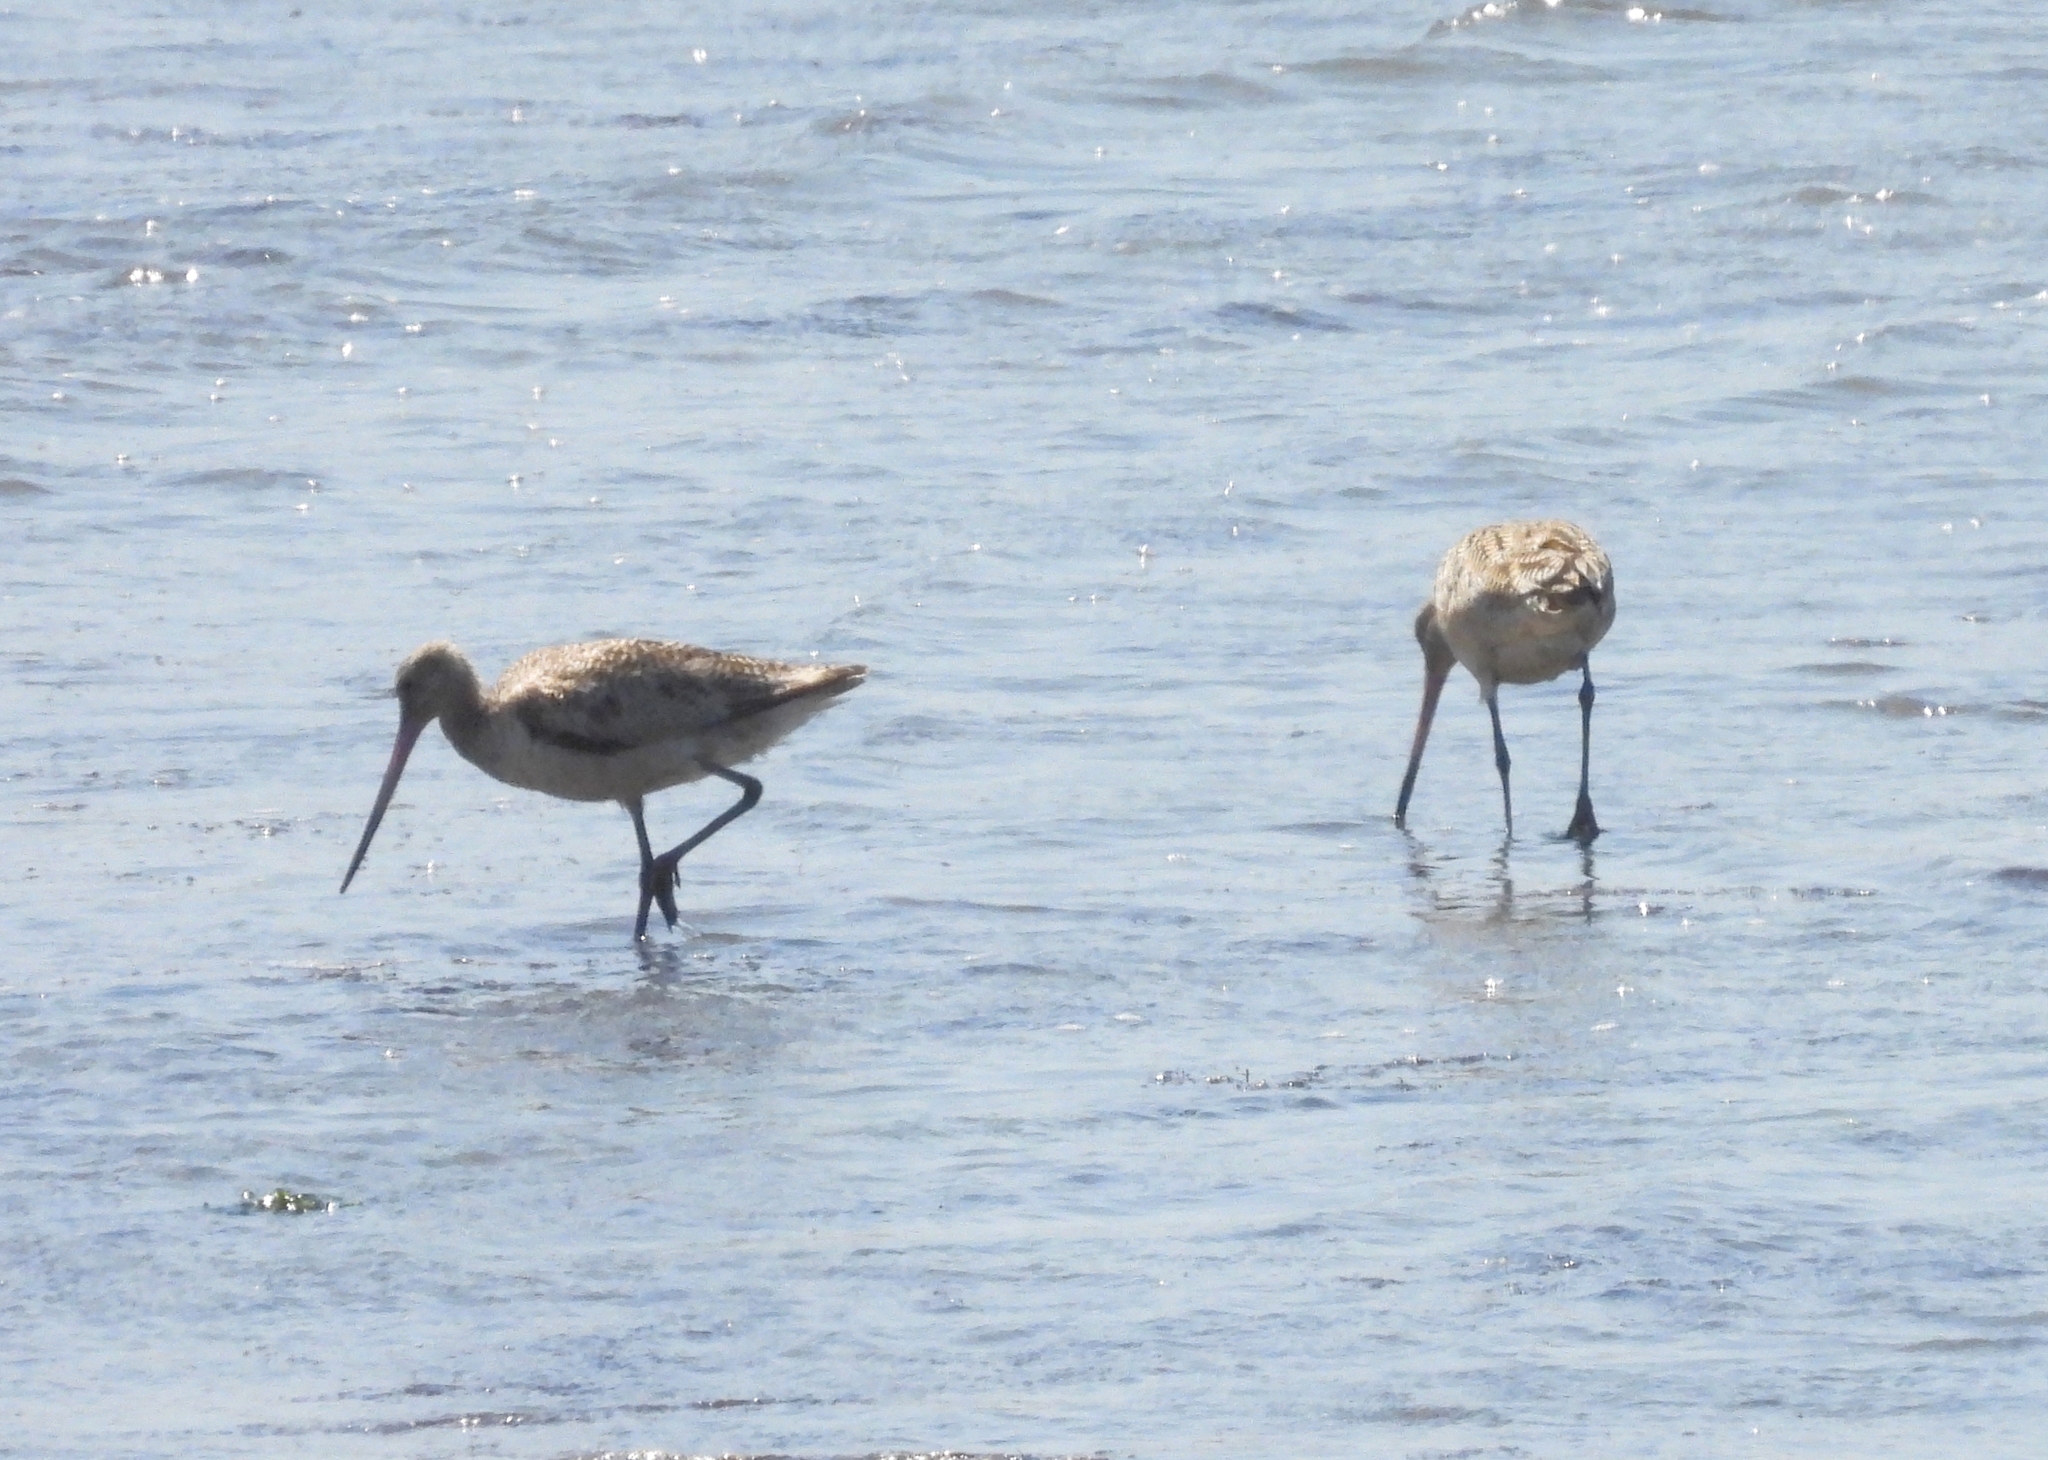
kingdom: Animalia
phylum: Chordata
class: Aves
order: Charadriiformes
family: Scolopacidae
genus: Limosa
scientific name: Limosa fedoa
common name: Marbled godwit
